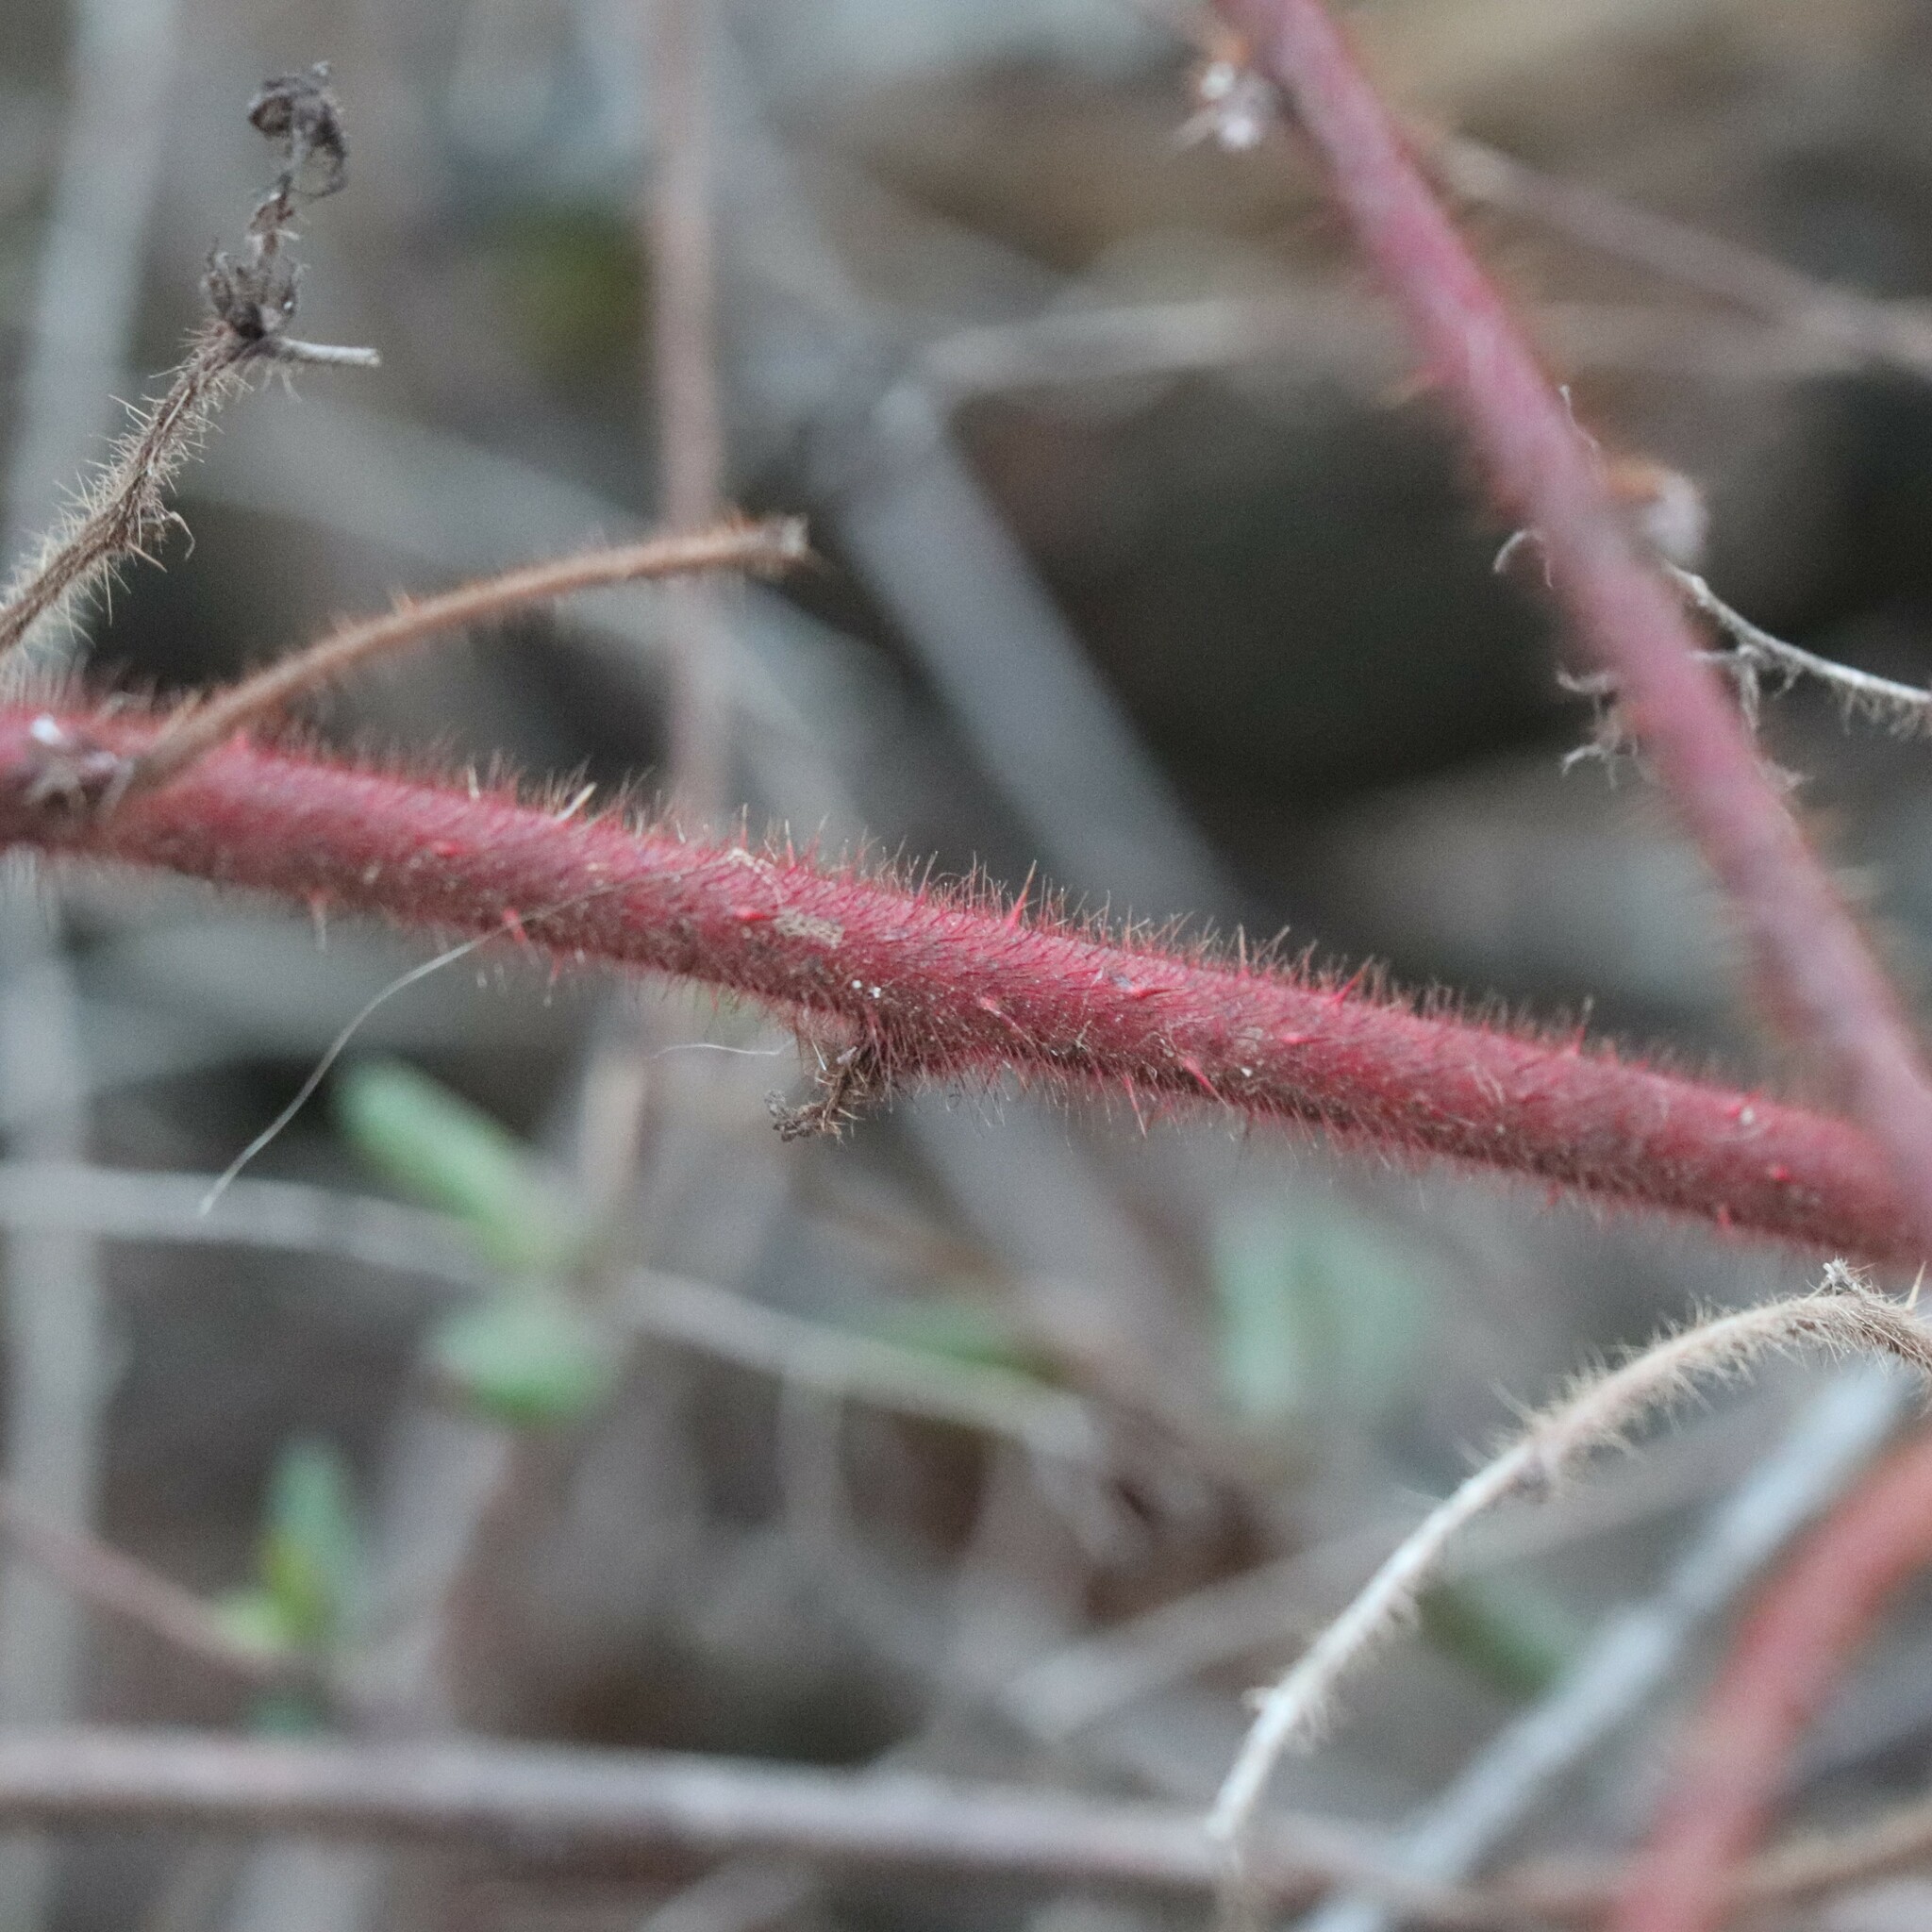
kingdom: Plantae
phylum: Tracheophyta
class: Magnoliopsida
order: Rosales
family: Rosaceae
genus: Rubus
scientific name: Rubus phoenicolasius
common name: Japanese wineberry
